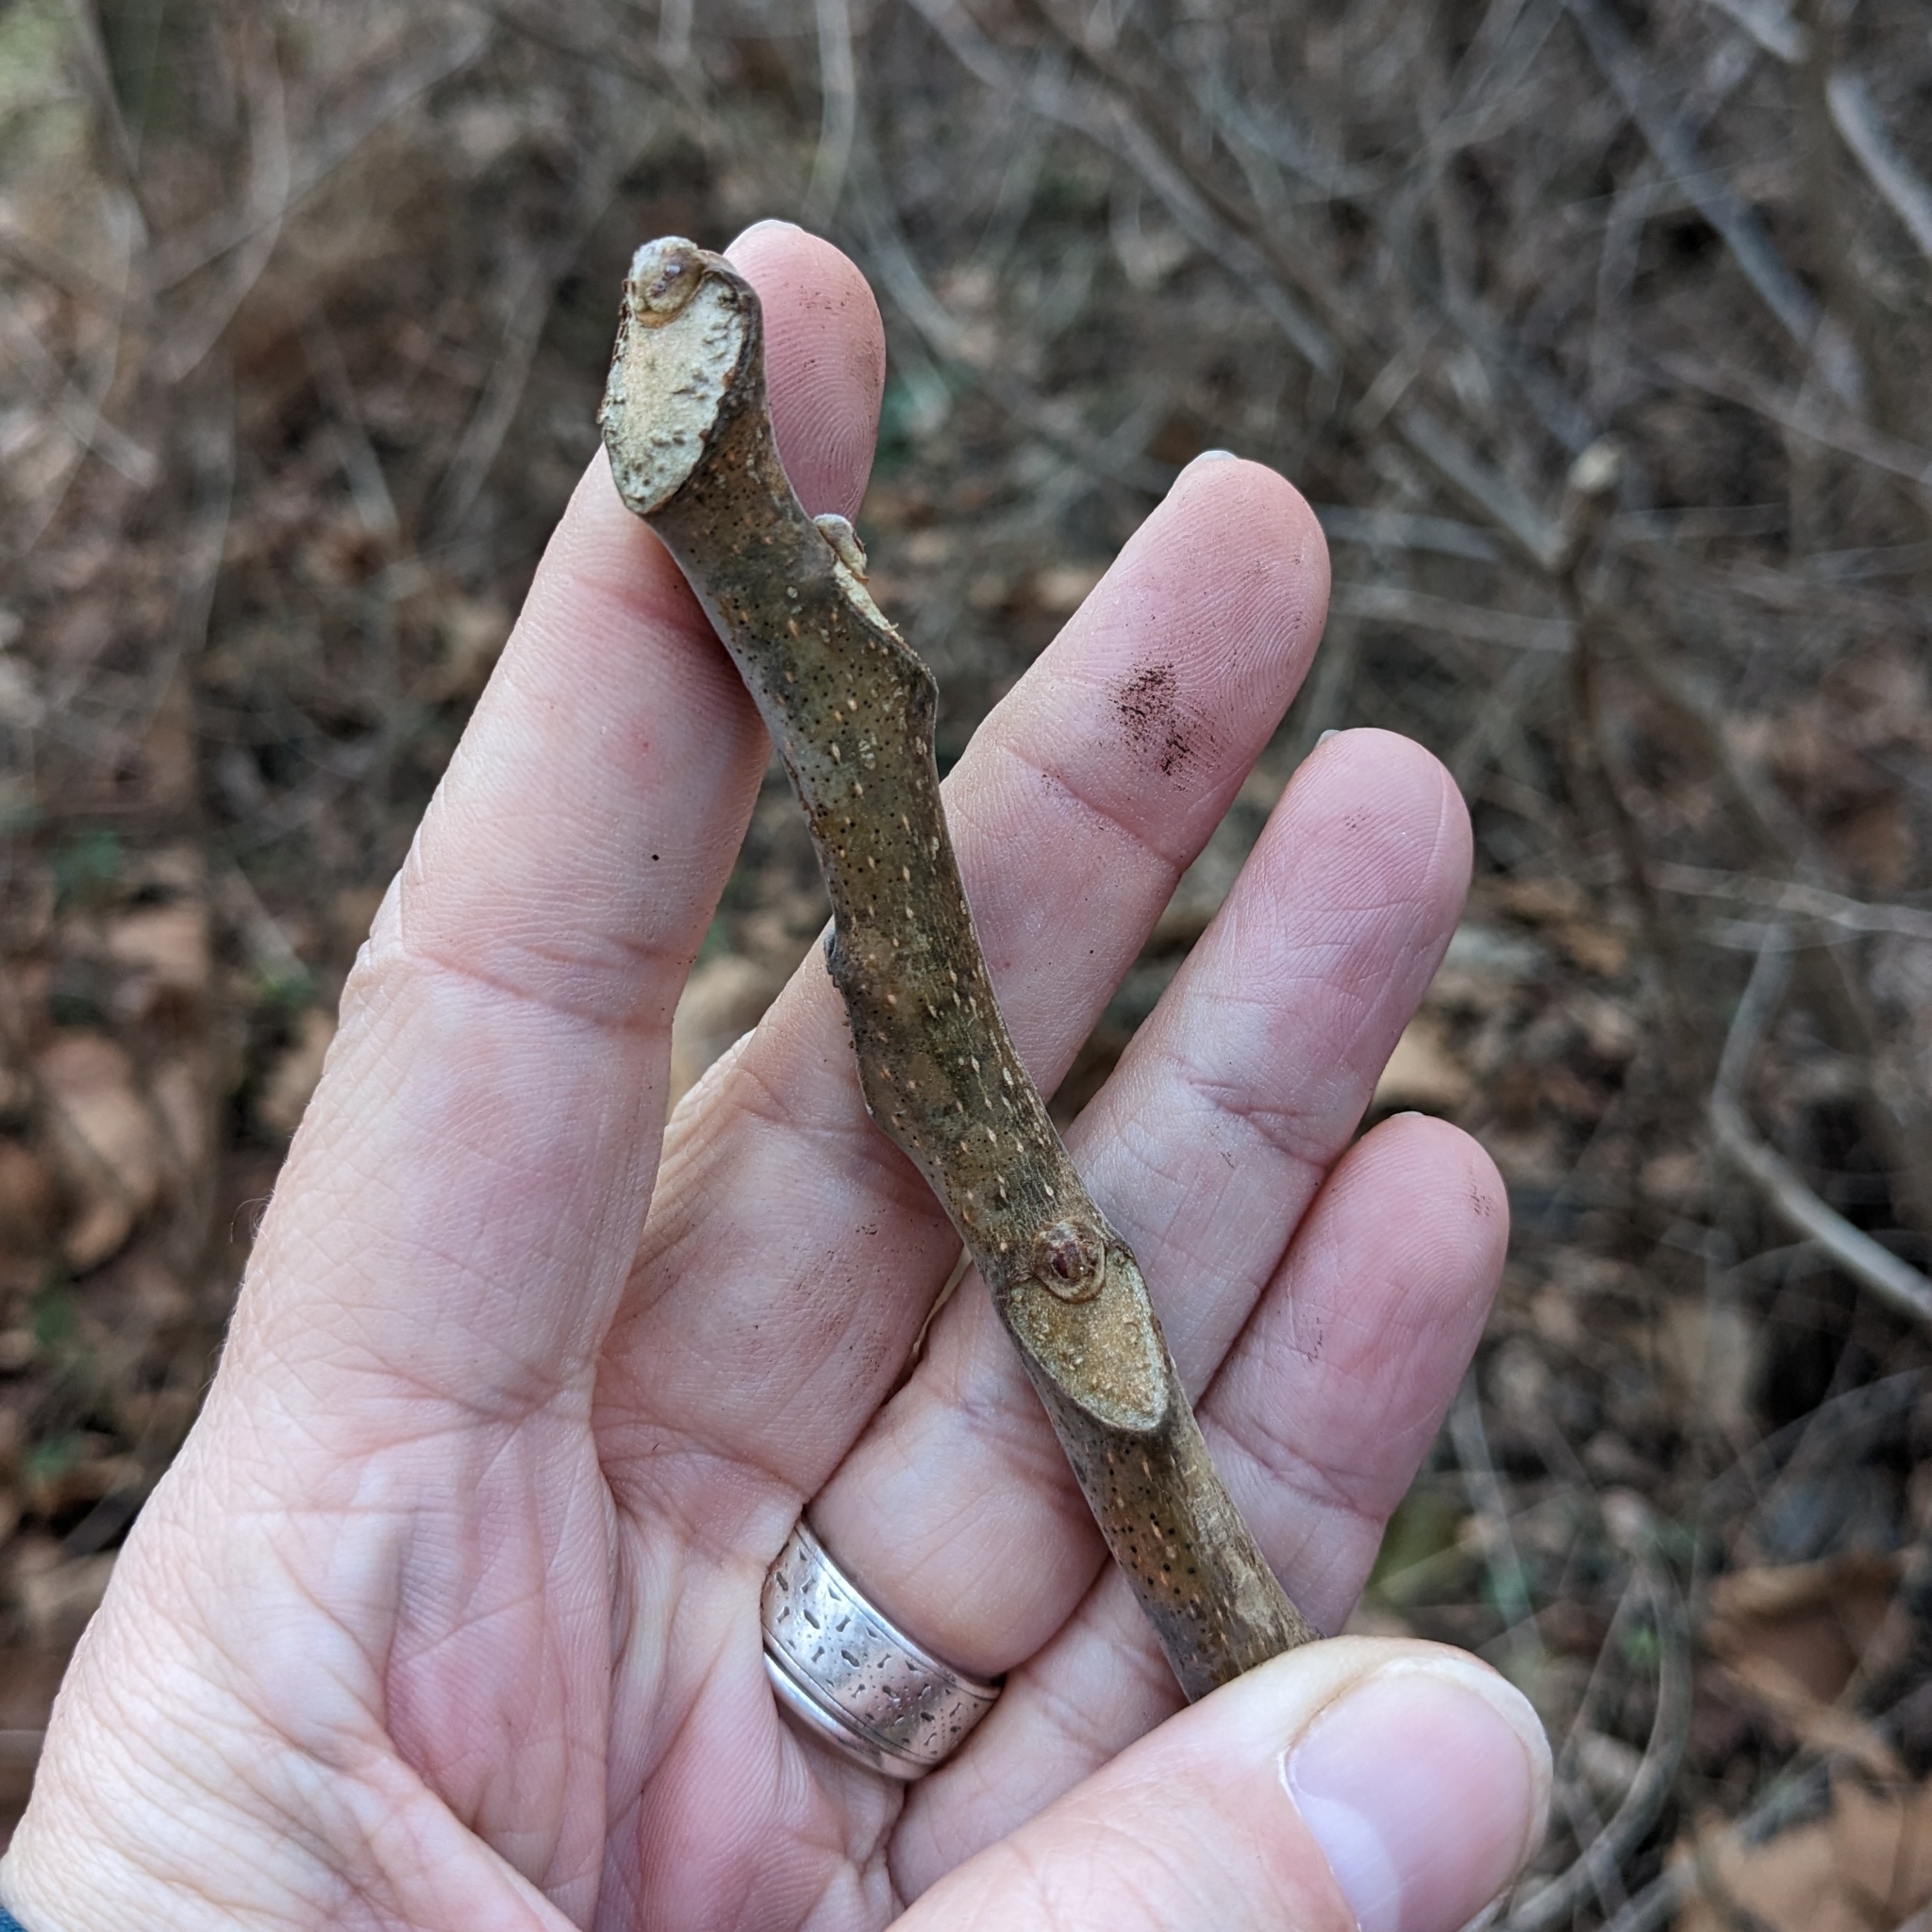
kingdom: Plantae
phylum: Tracheophyta
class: Magnoliopsida
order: Sapindales
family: Simaroubaceae
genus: Ailanthus
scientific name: Ailanthus altissima
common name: Tree-of-heaven
